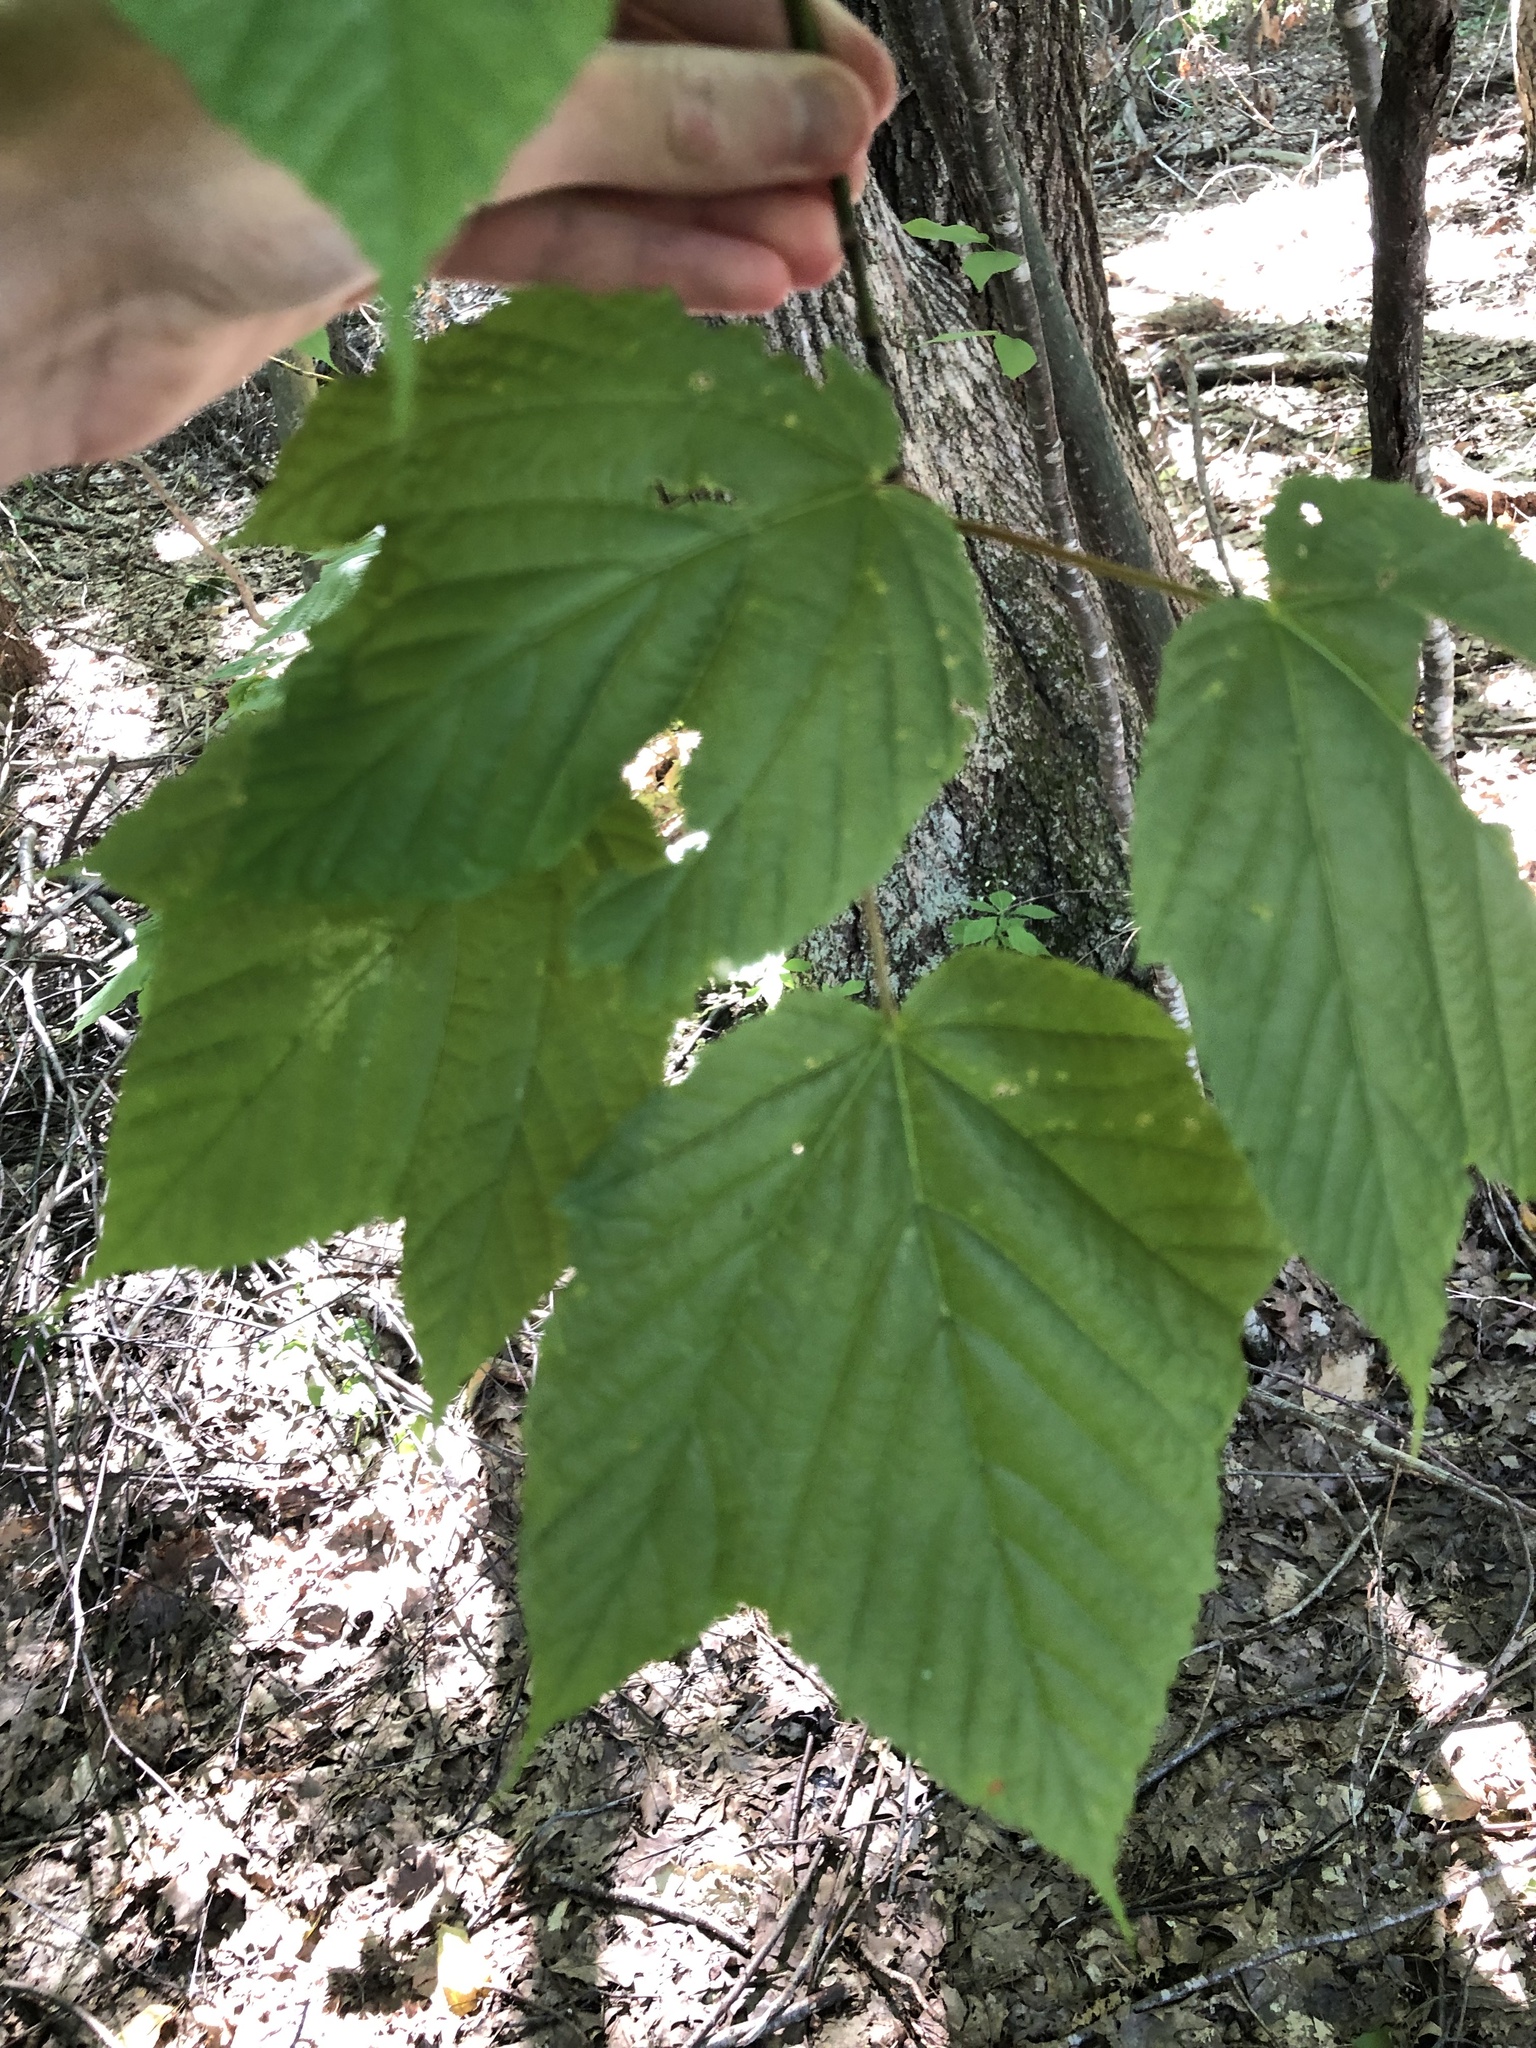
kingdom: Plantae
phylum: Tracheophyta
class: Magnoliopsida
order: Sapindales
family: Sapindaceae
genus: Acer
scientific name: Acer pensylvanicum
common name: Moosewood
